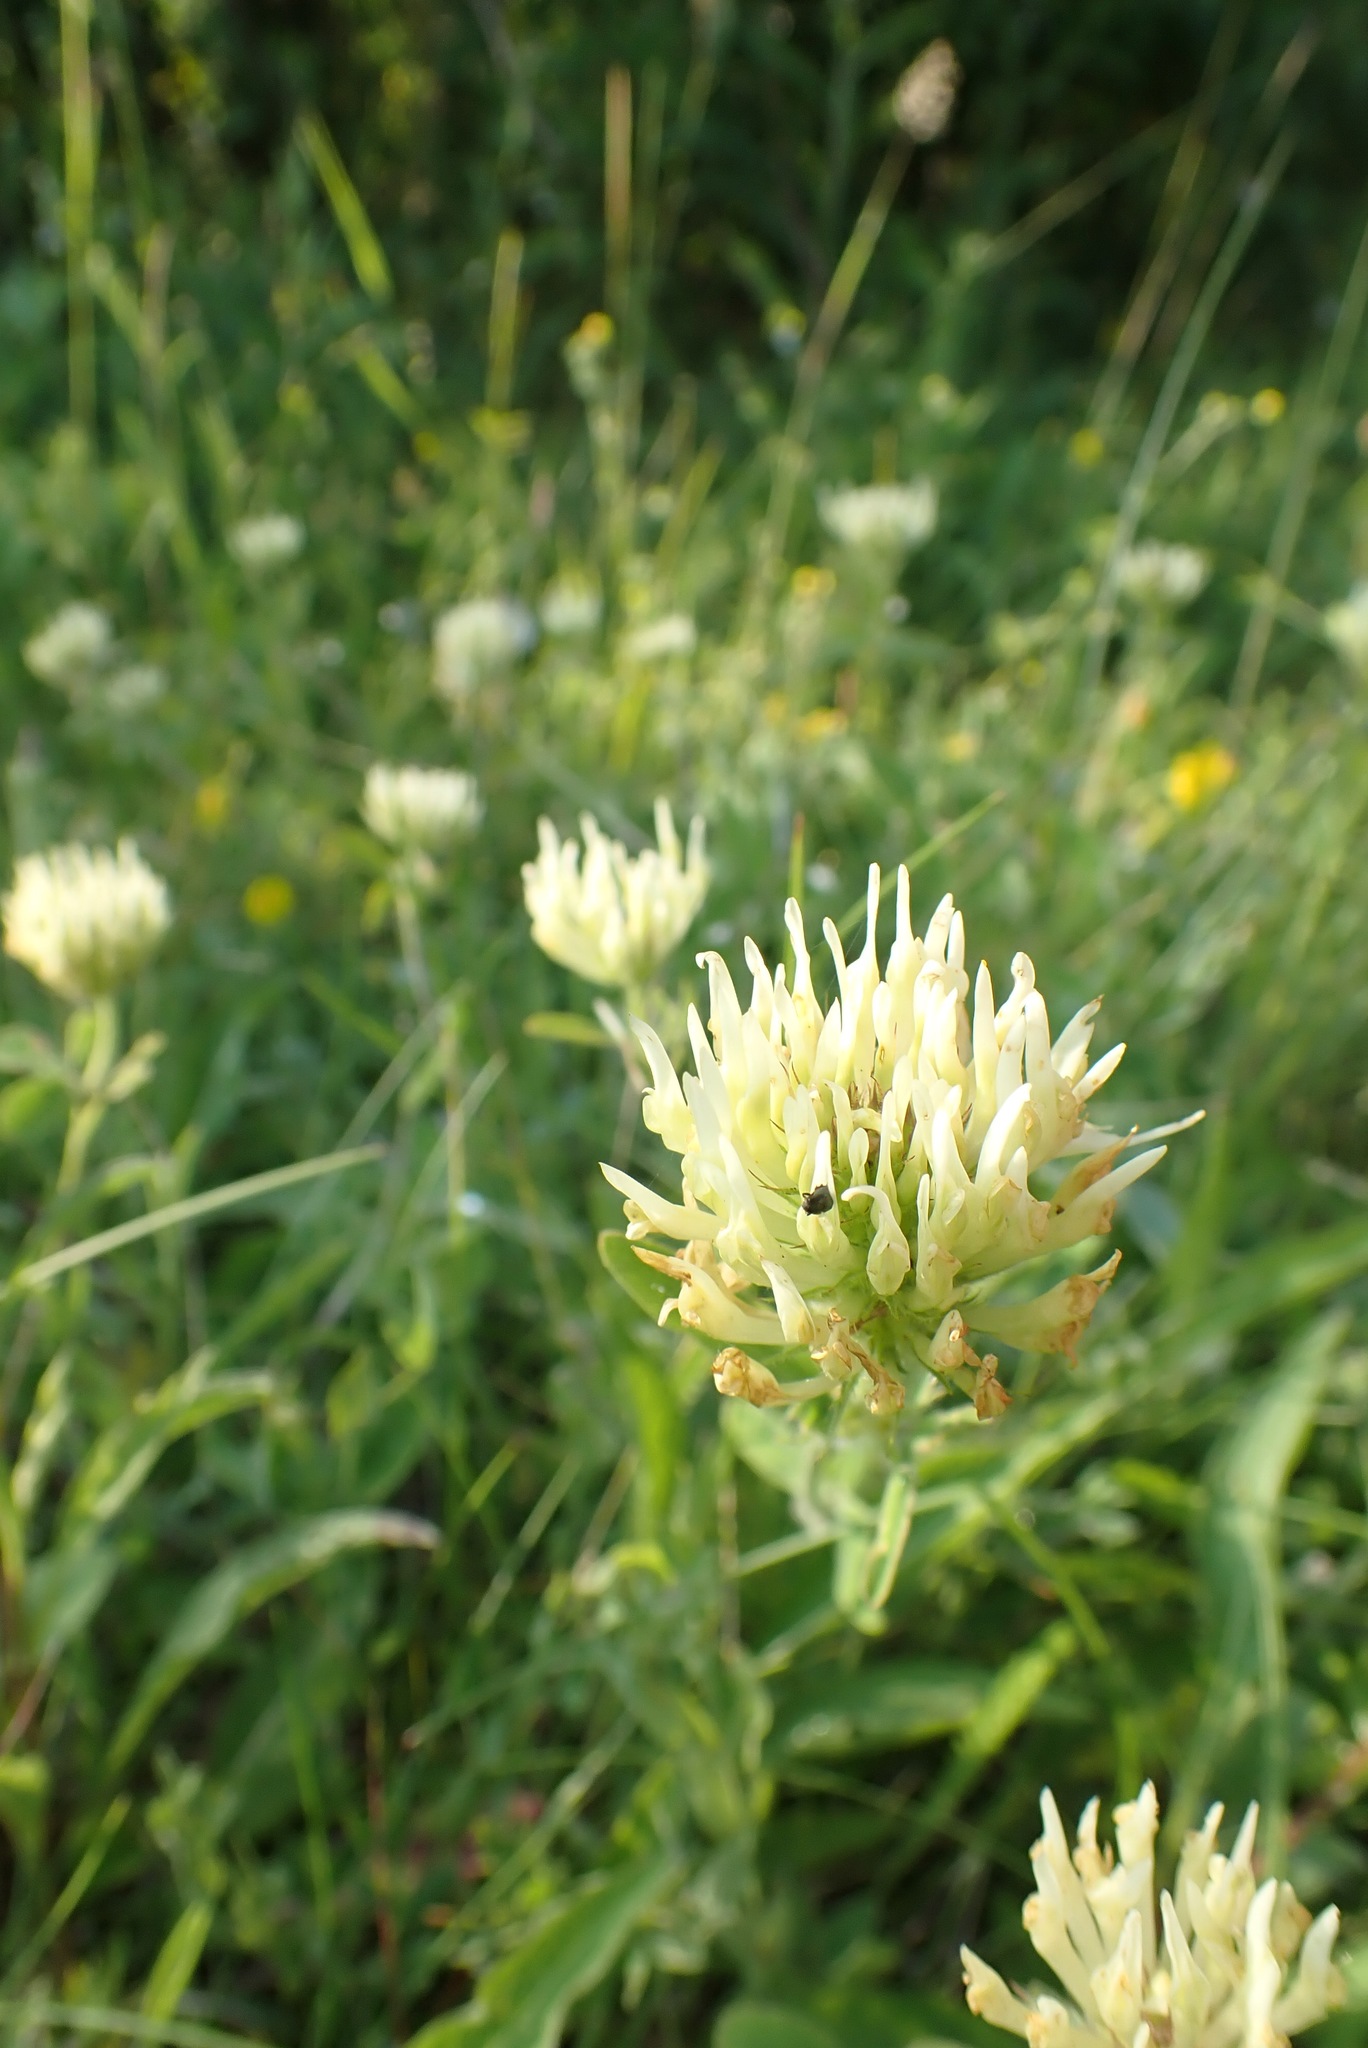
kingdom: Plantae
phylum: Tracheophyta
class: Magnoliopsida
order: Fabales
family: Fabaceae
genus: Trifolium
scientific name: Trifolium ochroleucon
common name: Sulphur clover
